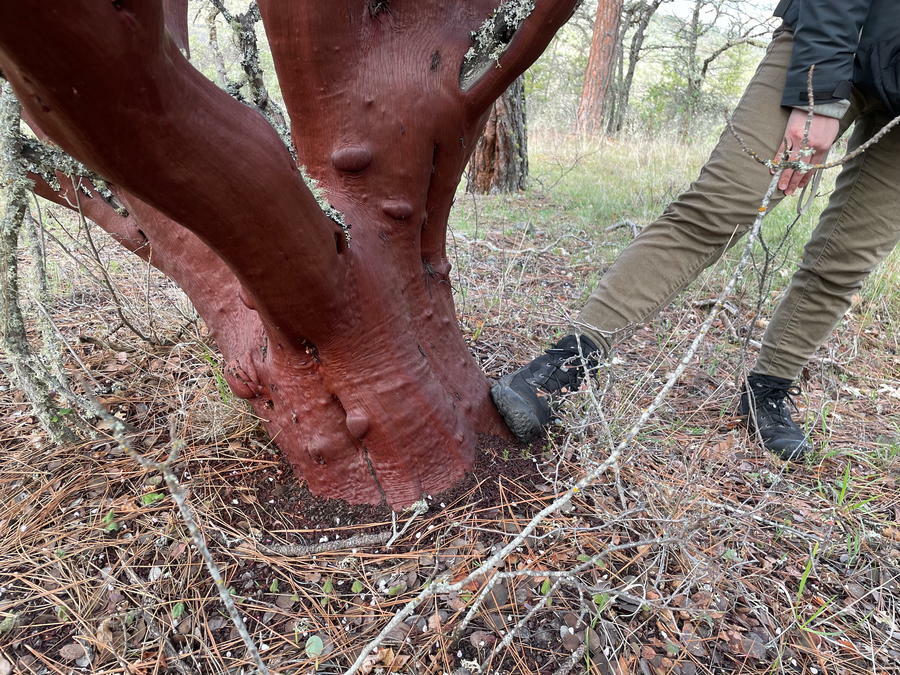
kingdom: Plantae
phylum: Tracheophyta
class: Magnoliopsida
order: Ericales
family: Ericaceae
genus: Arctostaphylos
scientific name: Arctostaphylos viscida
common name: White-leaf manzanita
